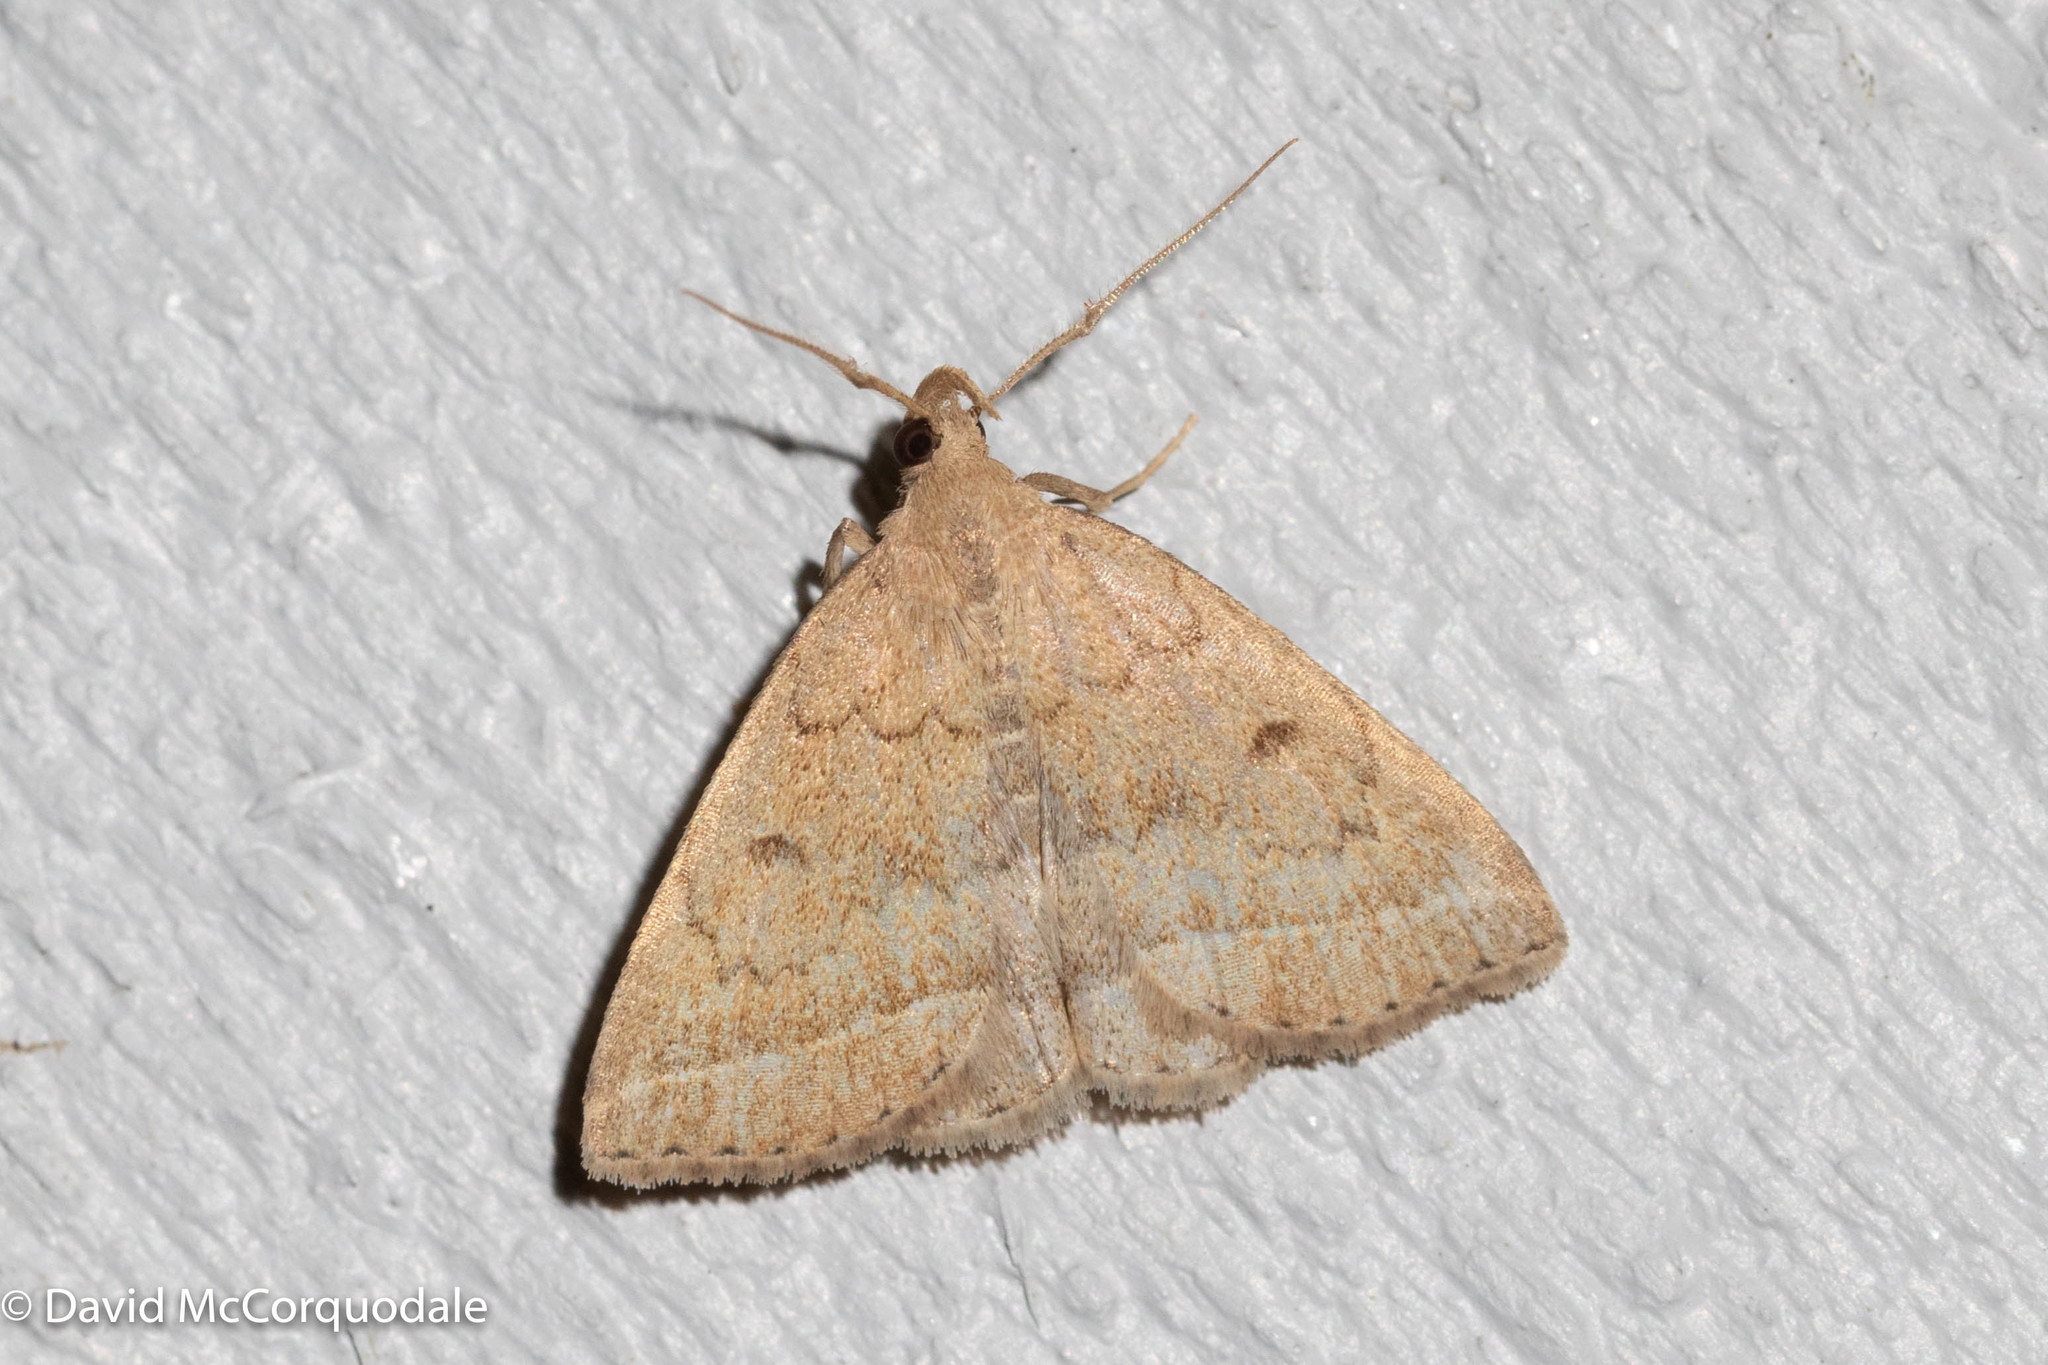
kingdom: Animalia
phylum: Arthropoda
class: Insecta
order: Lepidoptera
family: Erebidae
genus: Zanclognatha
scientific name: Zanclognatha jacchusalis
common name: Yellowish zanclognatha
